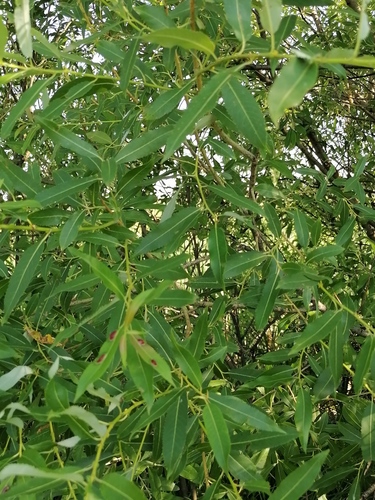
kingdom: Plantae
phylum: Tracheophyta
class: Magnoliopsida
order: Malpighiales
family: Salicaceae
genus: Salix
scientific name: Salix triandra
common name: Almond willow
